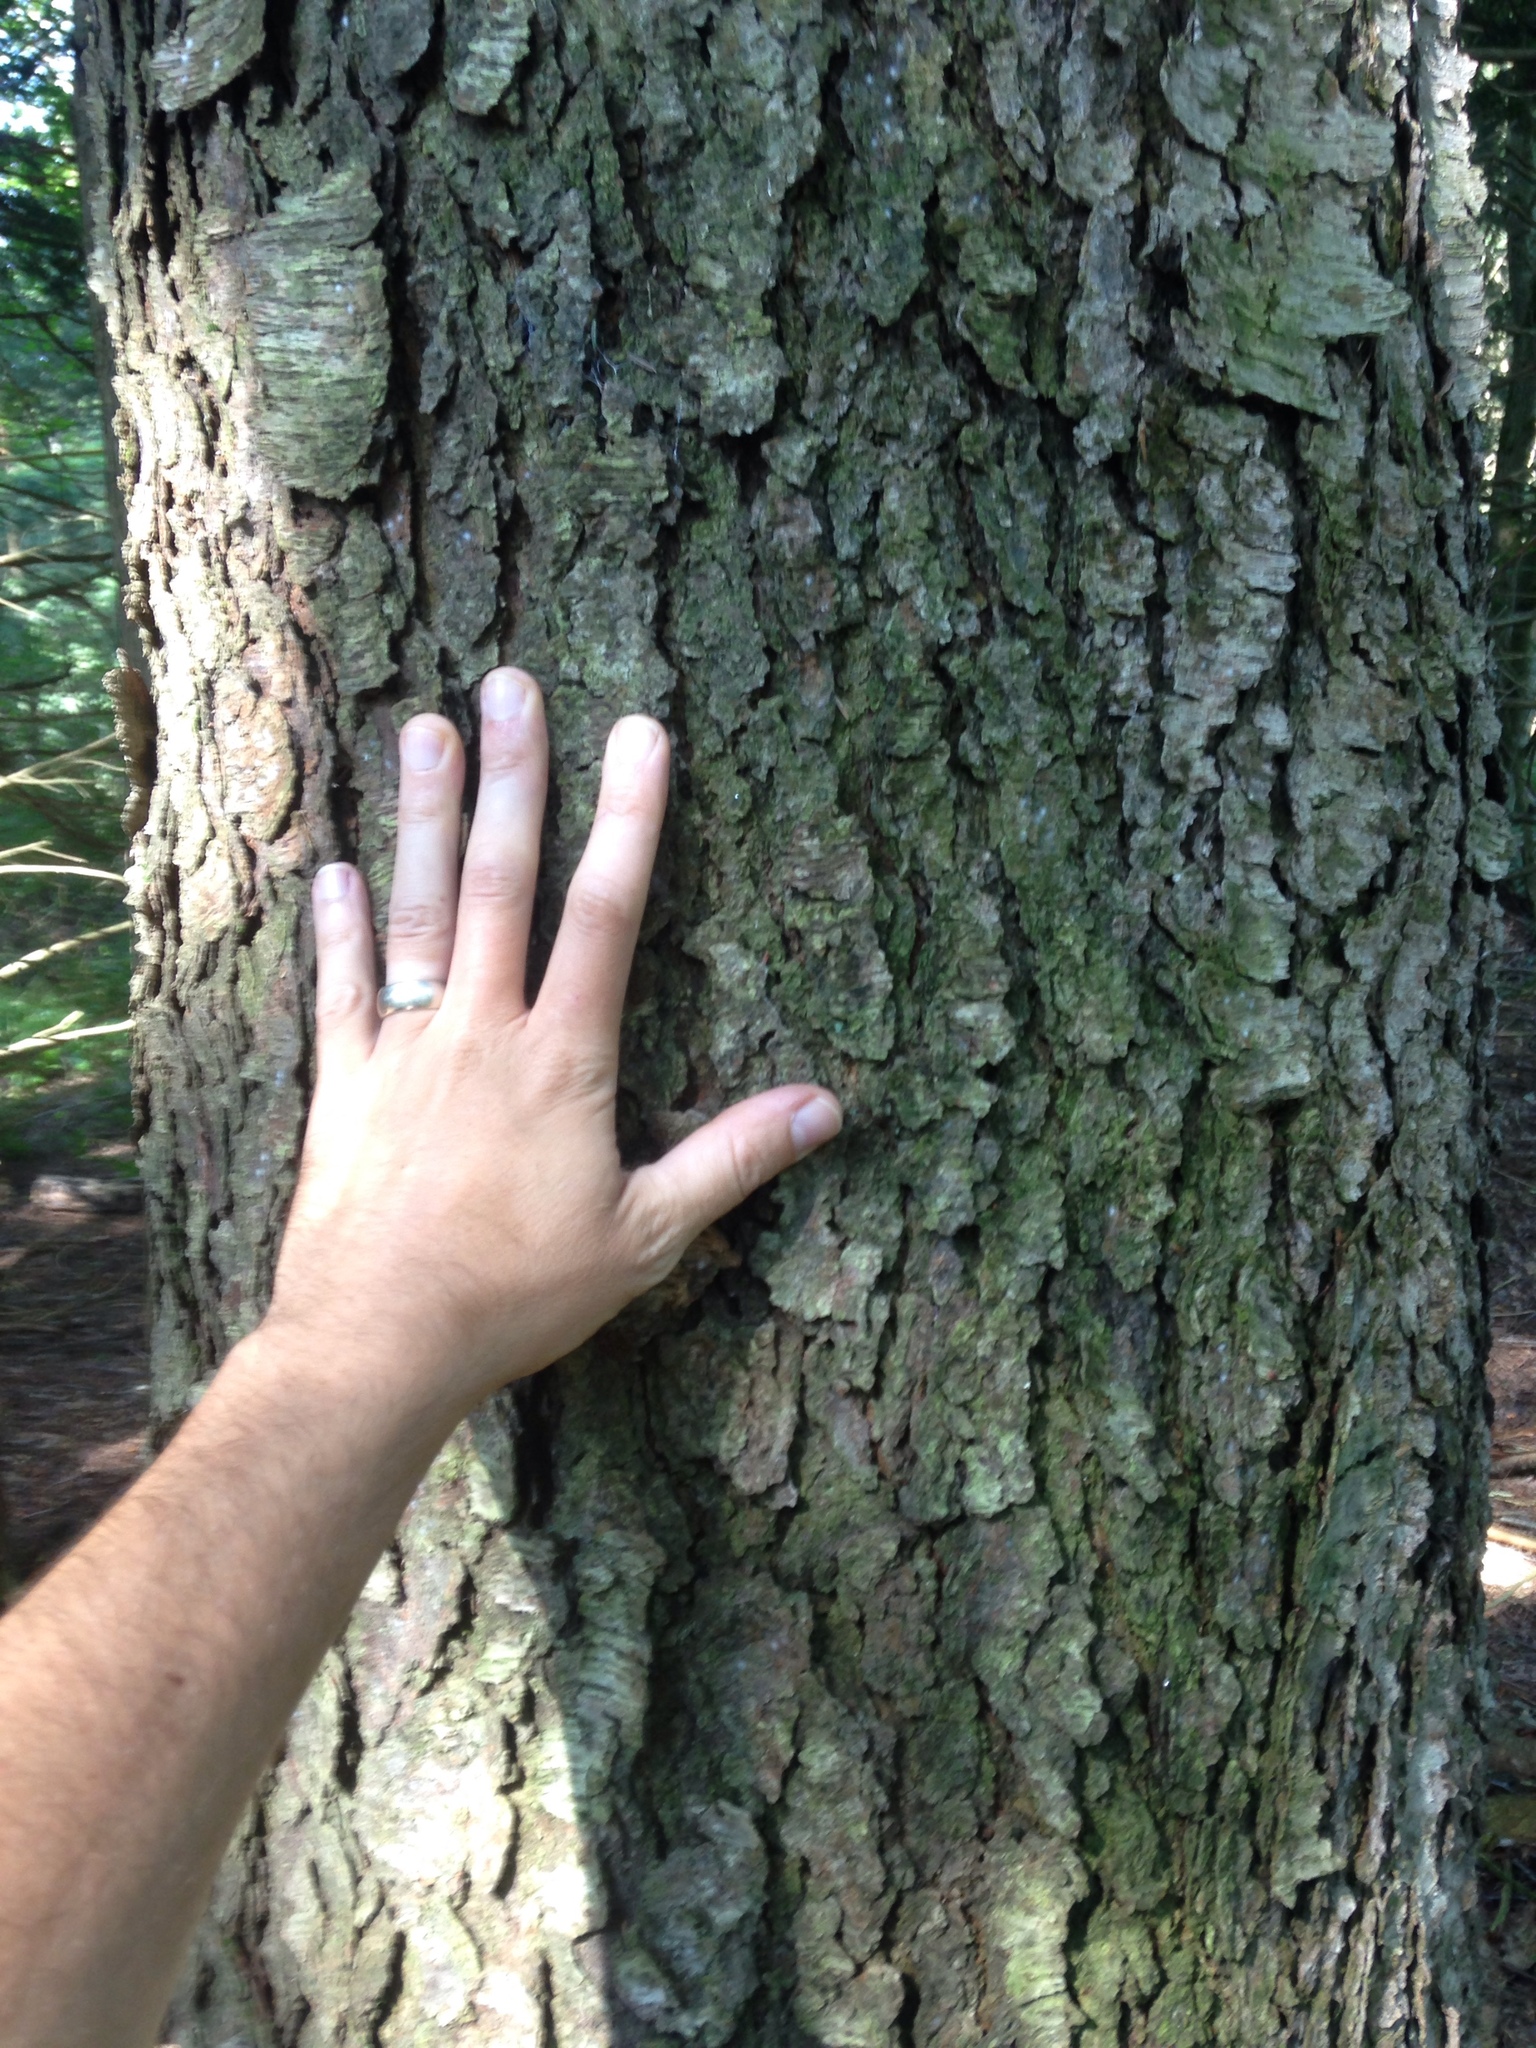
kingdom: Plantae
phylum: Tracheophyta
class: Magnoliopsida
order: Rosales
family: Rosaceae
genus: Prunus
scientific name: Prunus serotina
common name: Black cherry
